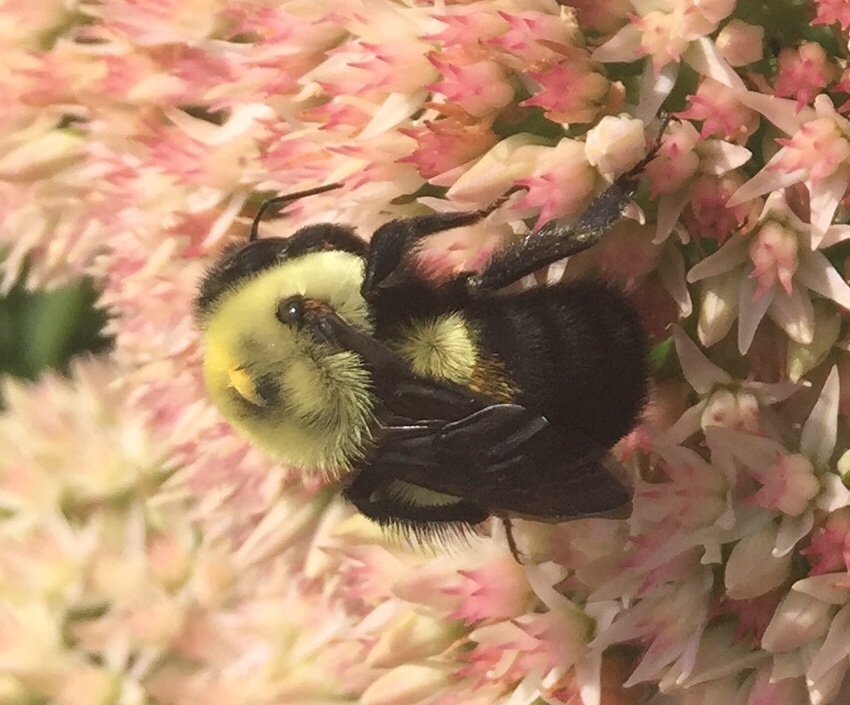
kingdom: Animalia
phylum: Arthropoda
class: Insecta
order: Hymenoptera
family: Apidae
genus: Bombus
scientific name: Bombus griseocollis
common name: Brown-belted bumble bee
